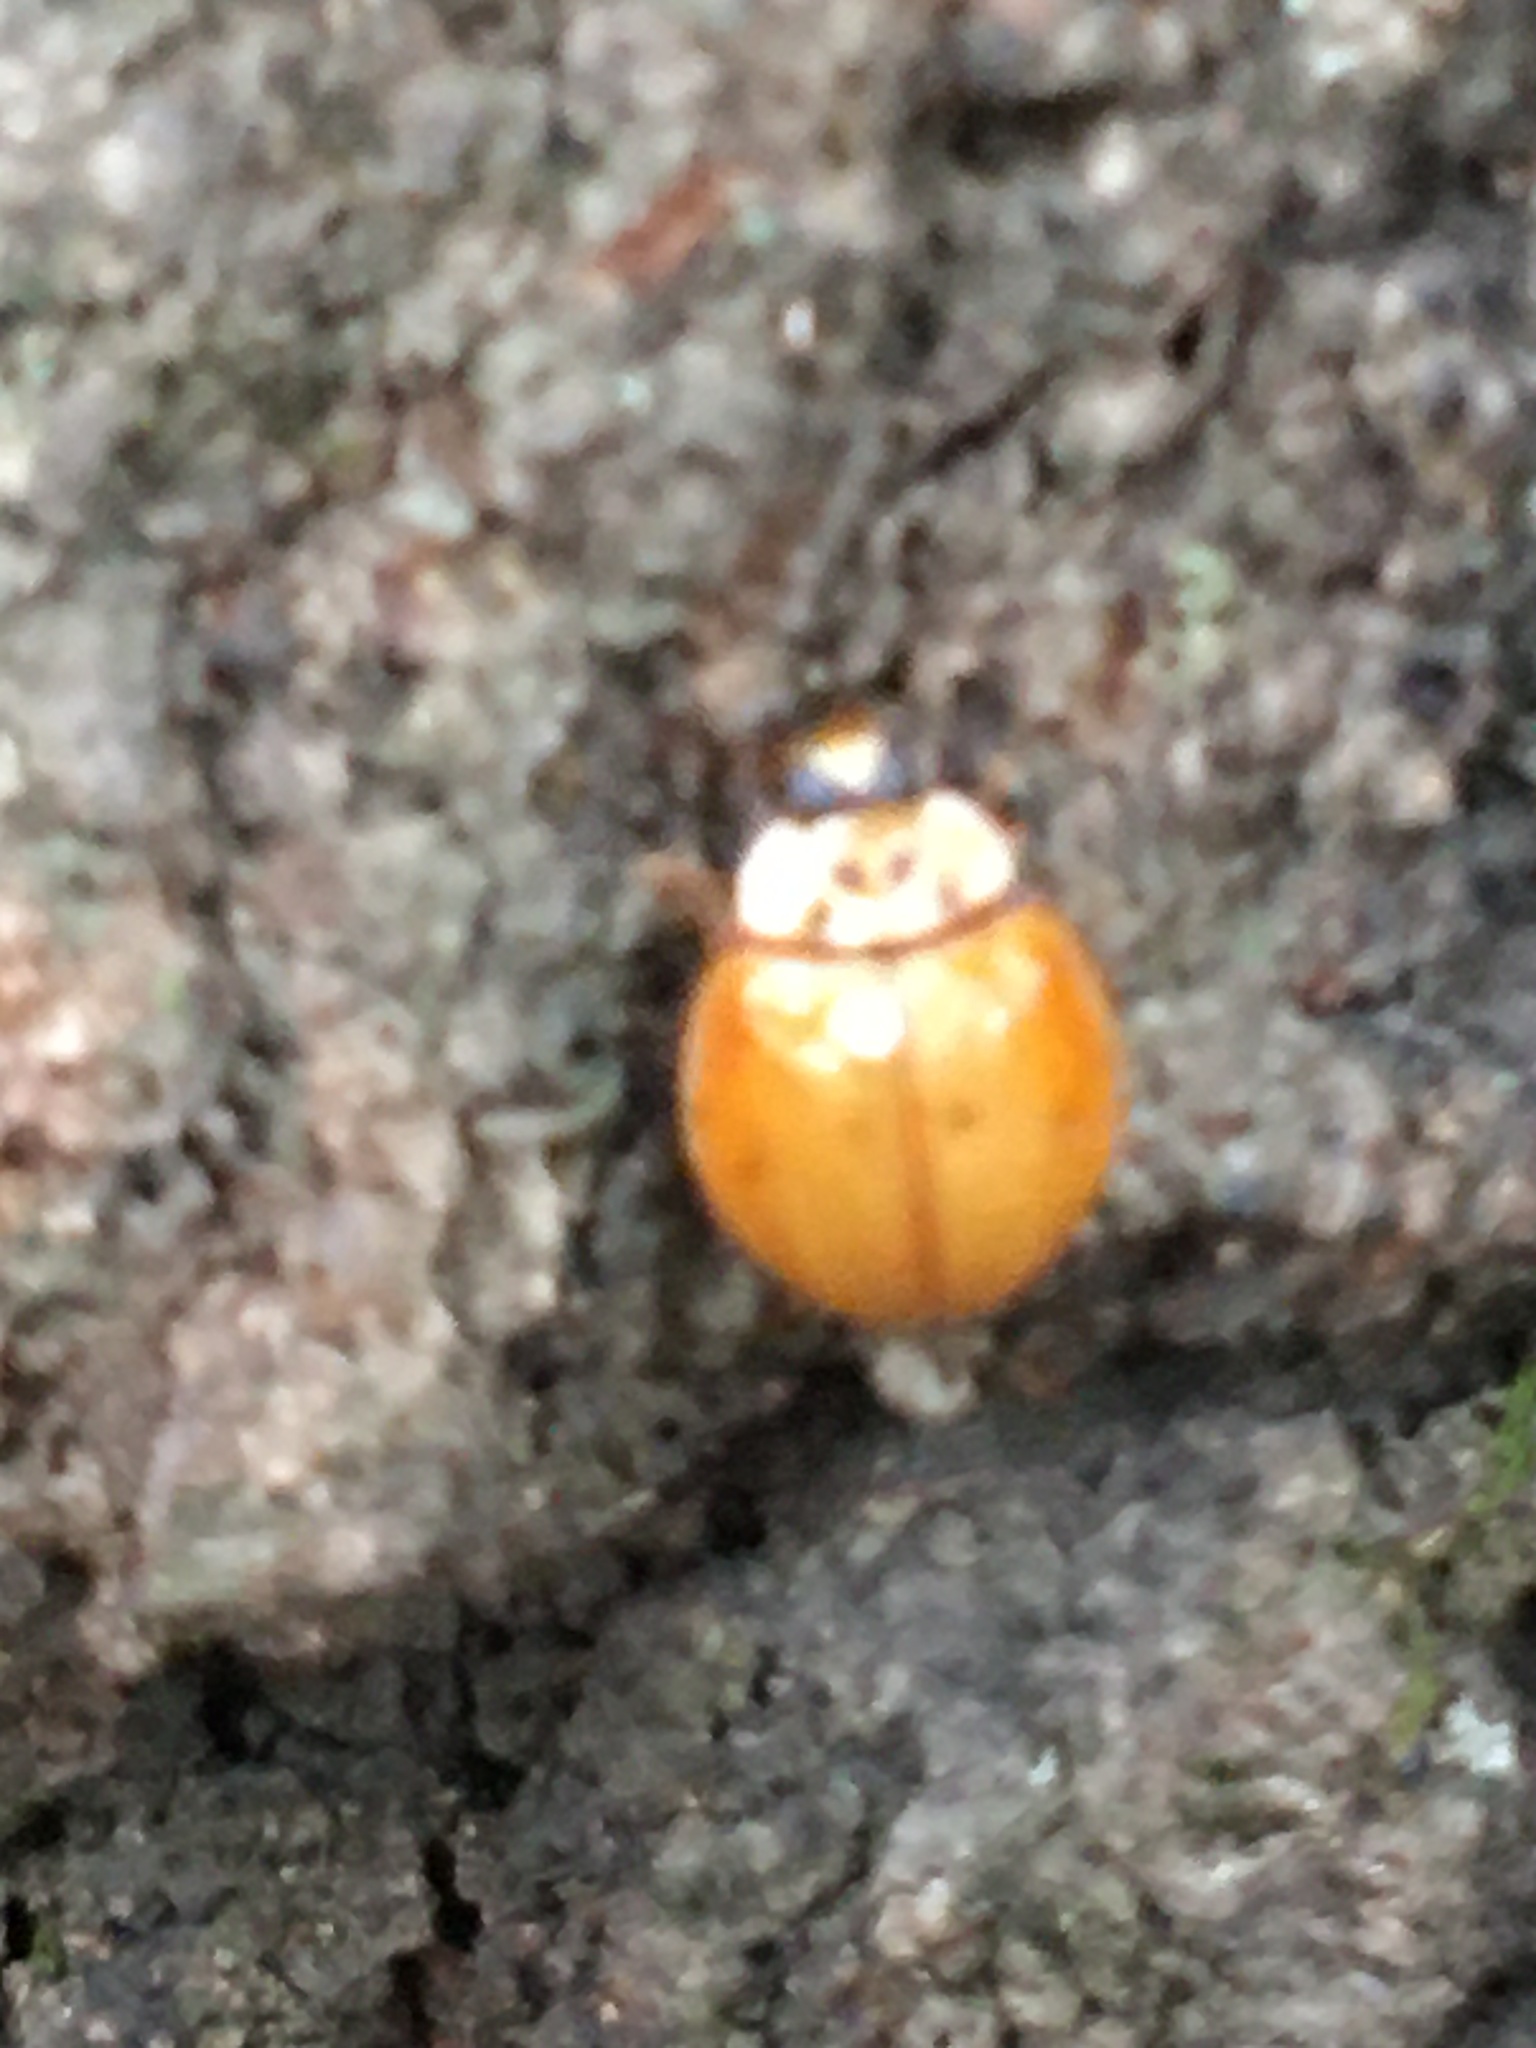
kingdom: Animalia
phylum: Arthropoda
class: Insecta
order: Coleoptera
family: Coccinellidae
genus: Harmonia
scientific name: Harmonia axyridis
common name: Harlequin ladybird
